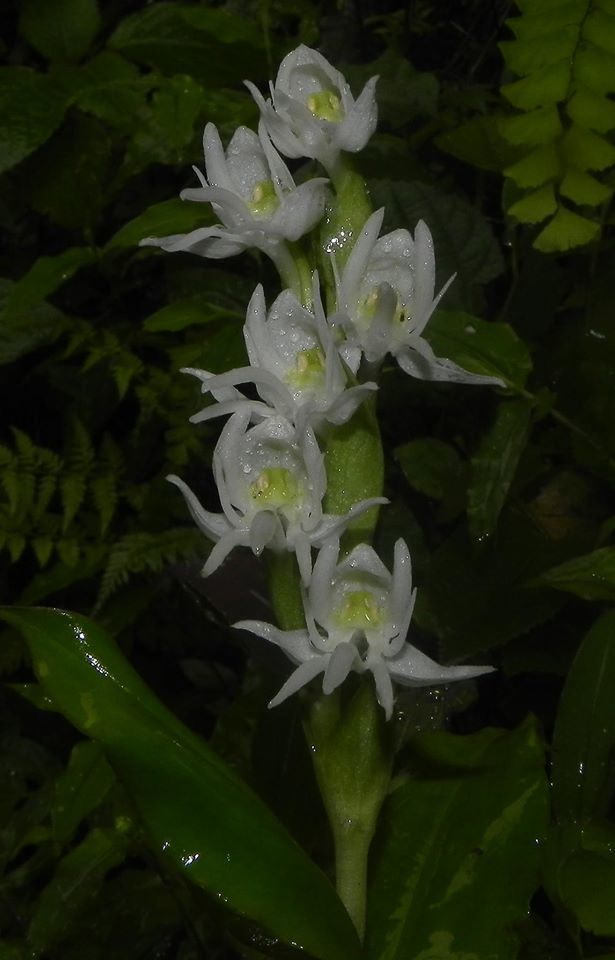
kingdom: Plantae
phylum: Tracheophyta
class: Liliopsida
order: Asparagales
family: Orchidaceae
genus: Habenaria
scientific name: Habenaria gibsonii
